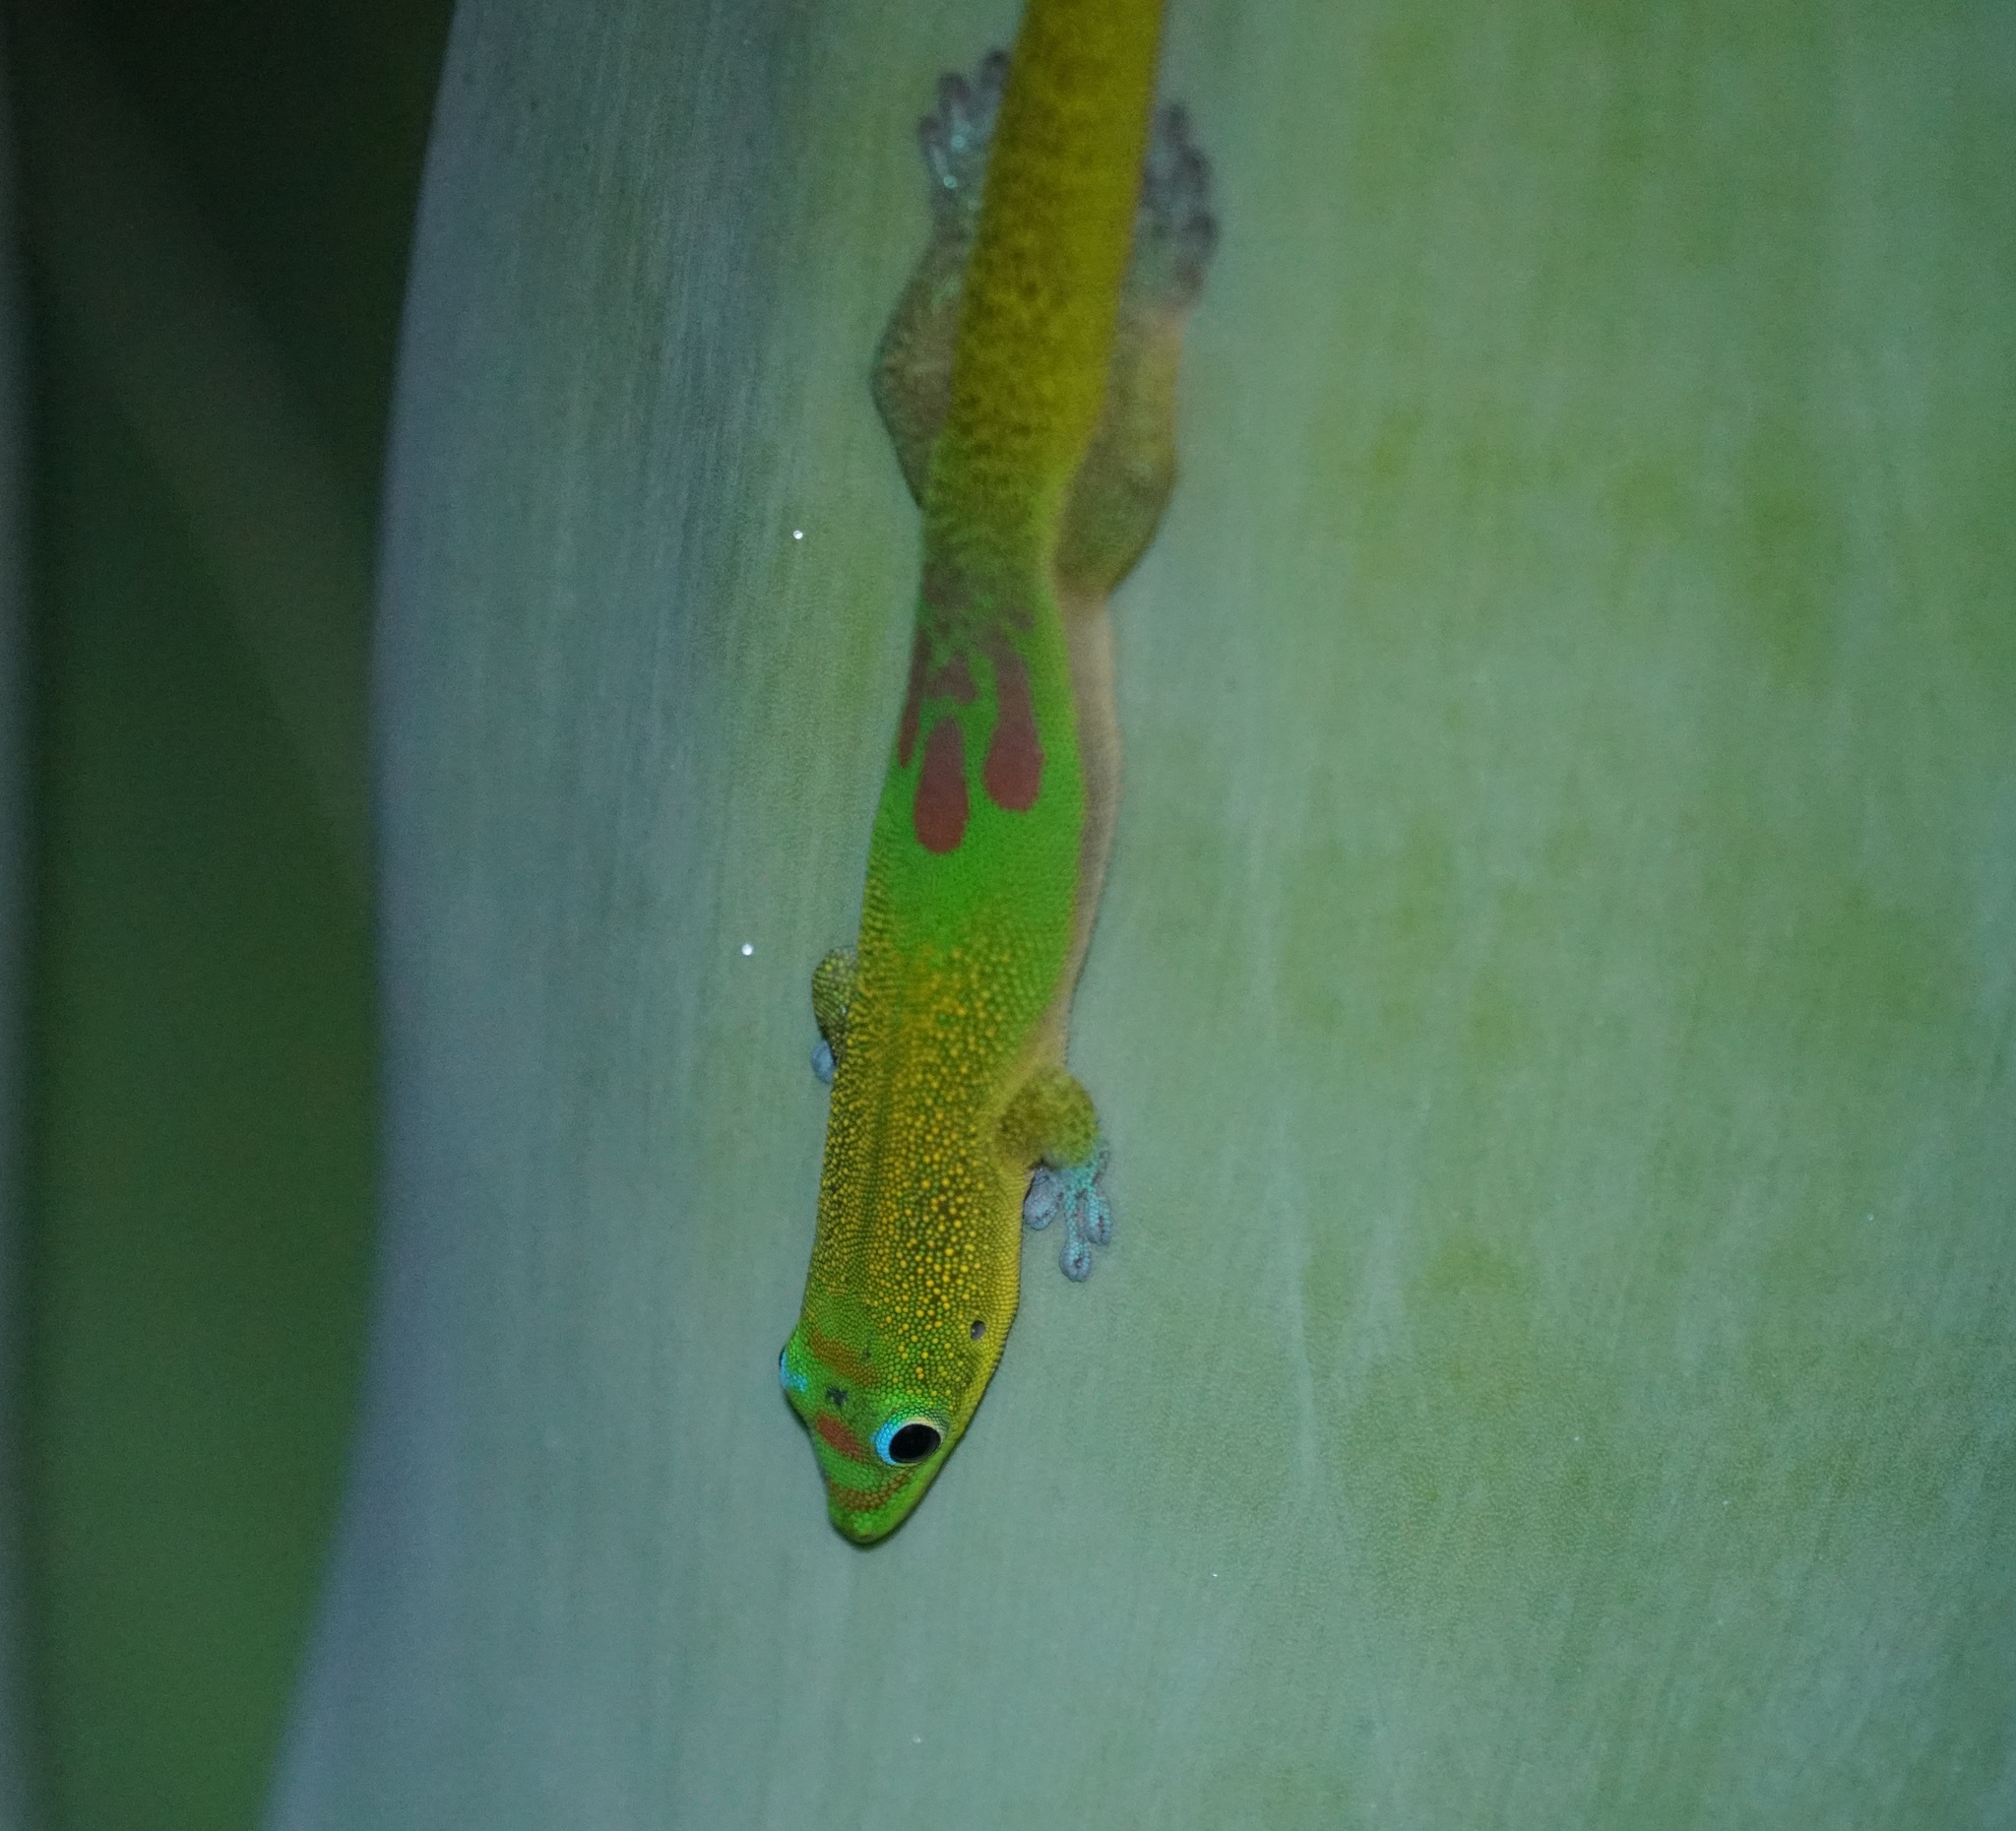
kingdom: Animalia
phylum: Chordata
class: Squamata
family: Gekkonidae
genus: Phelsuma
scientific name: Phelsuma laticauda
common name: Gold dust day gecko
